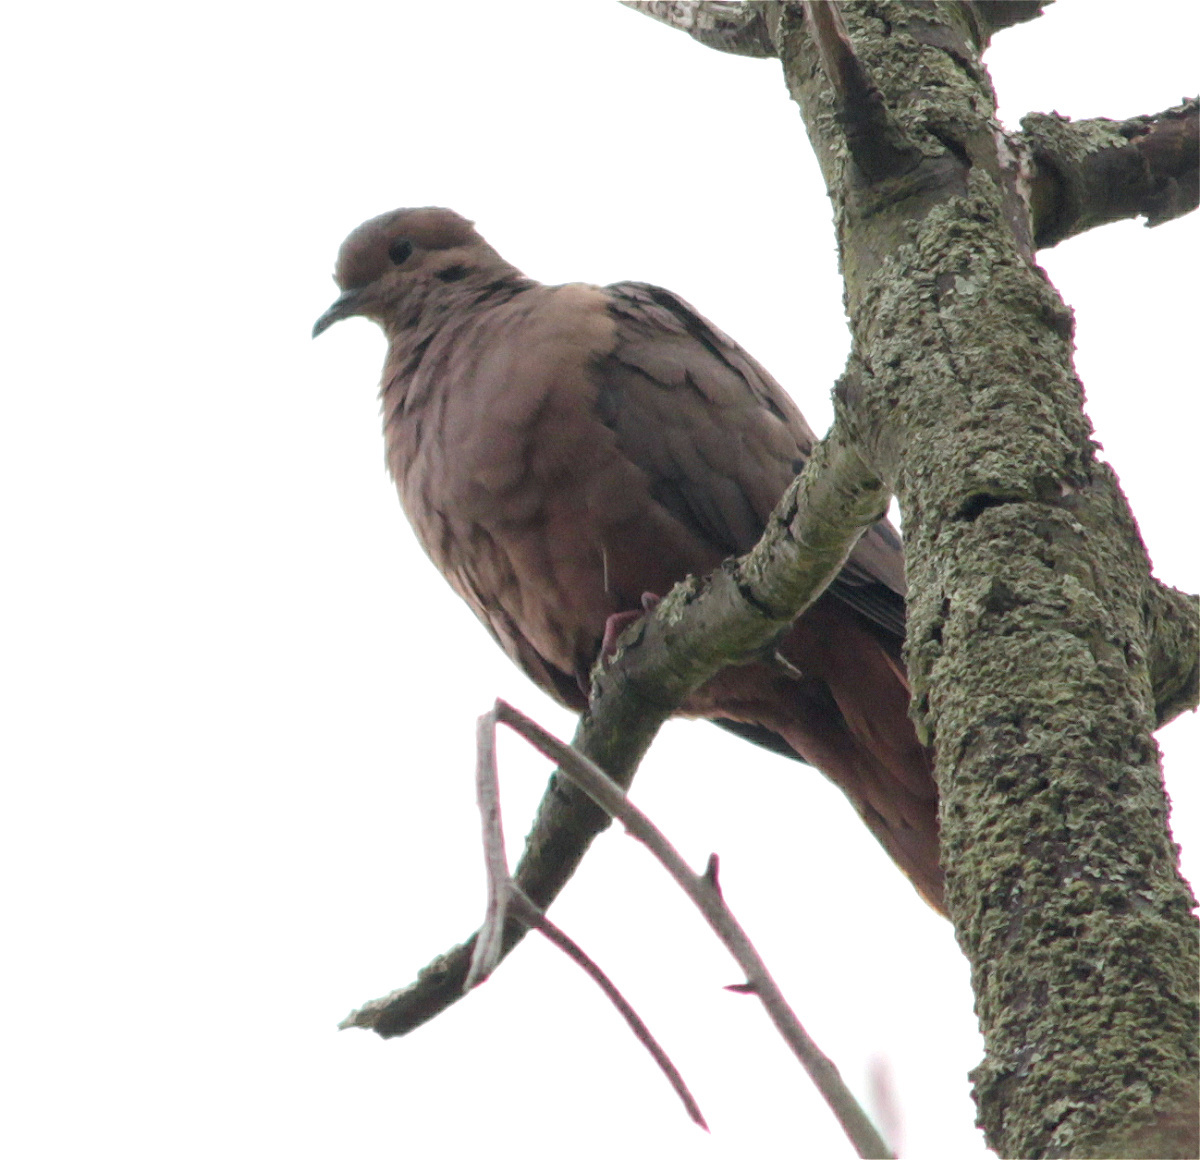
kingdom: Animalia
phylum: Chordata
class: Aves
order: Columbiformes
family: Columbidae
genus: Zenaida
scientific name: Zenaida auriculata
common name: Eared dove
